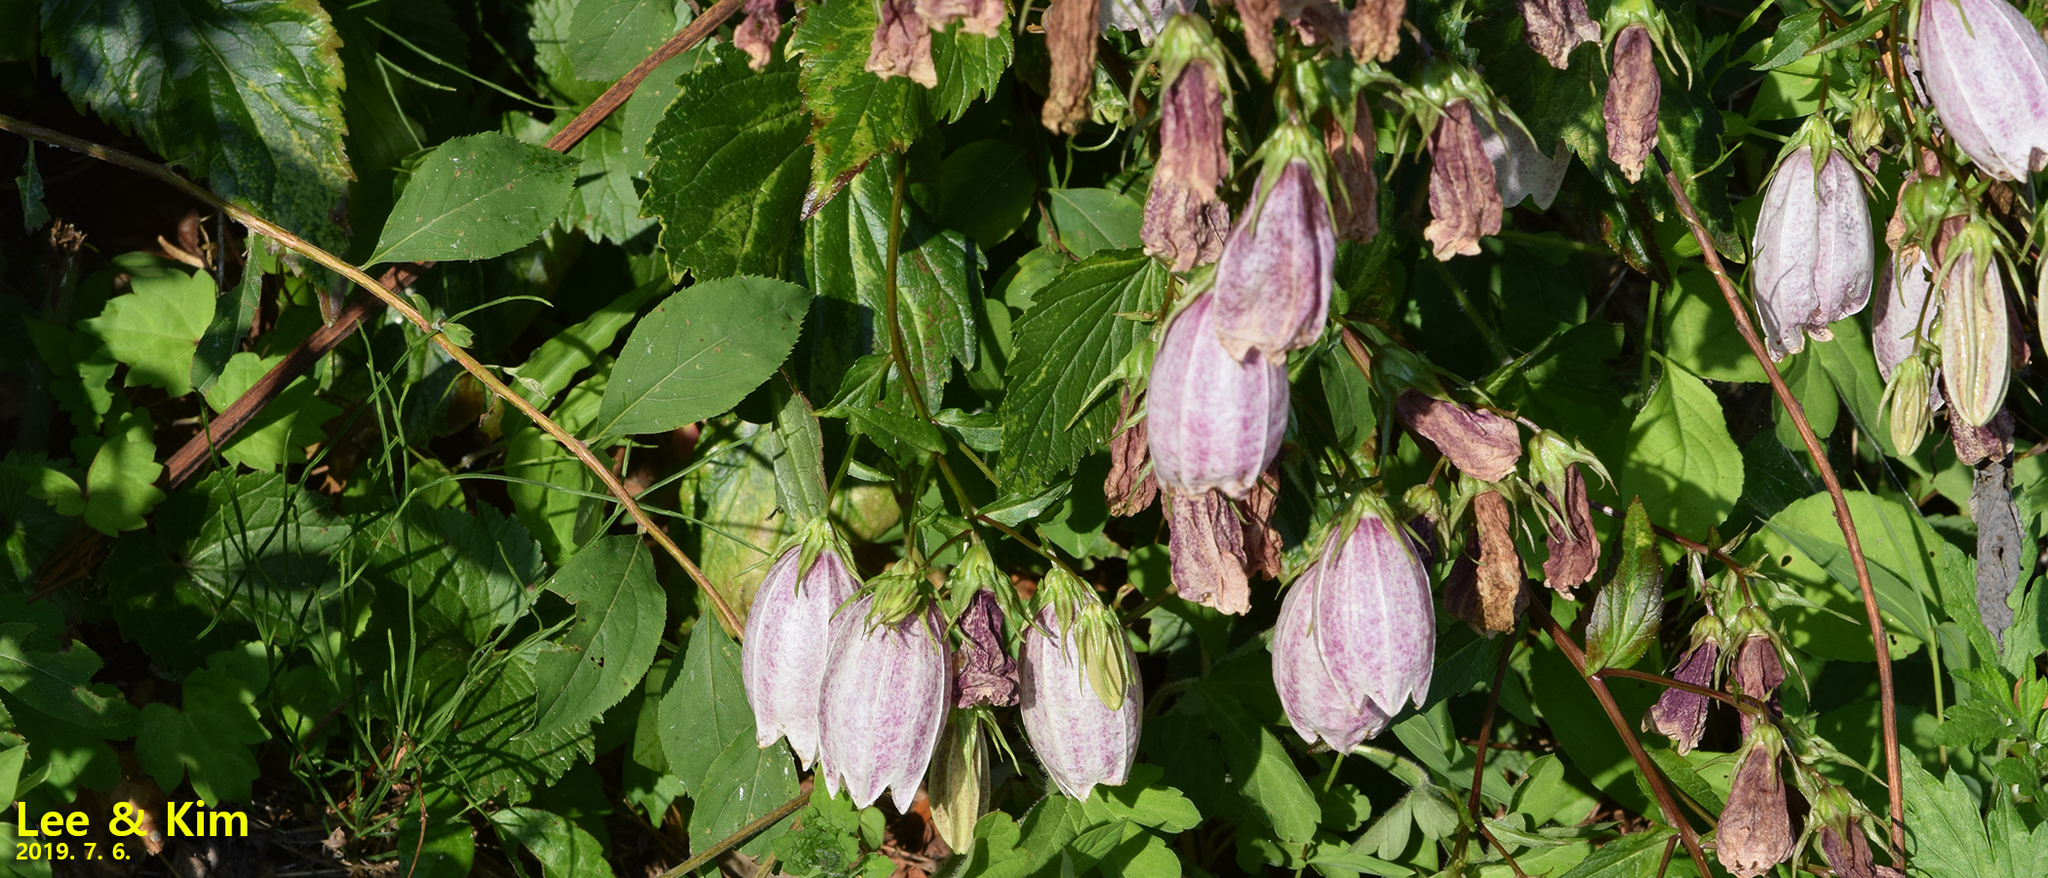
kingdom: Plantae
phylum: Tracheophyta
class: Magnoliopsida
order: Asterales
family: Campanulaceae
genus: Campanula
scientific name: Campanula punctata
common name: Spotted bellflower
